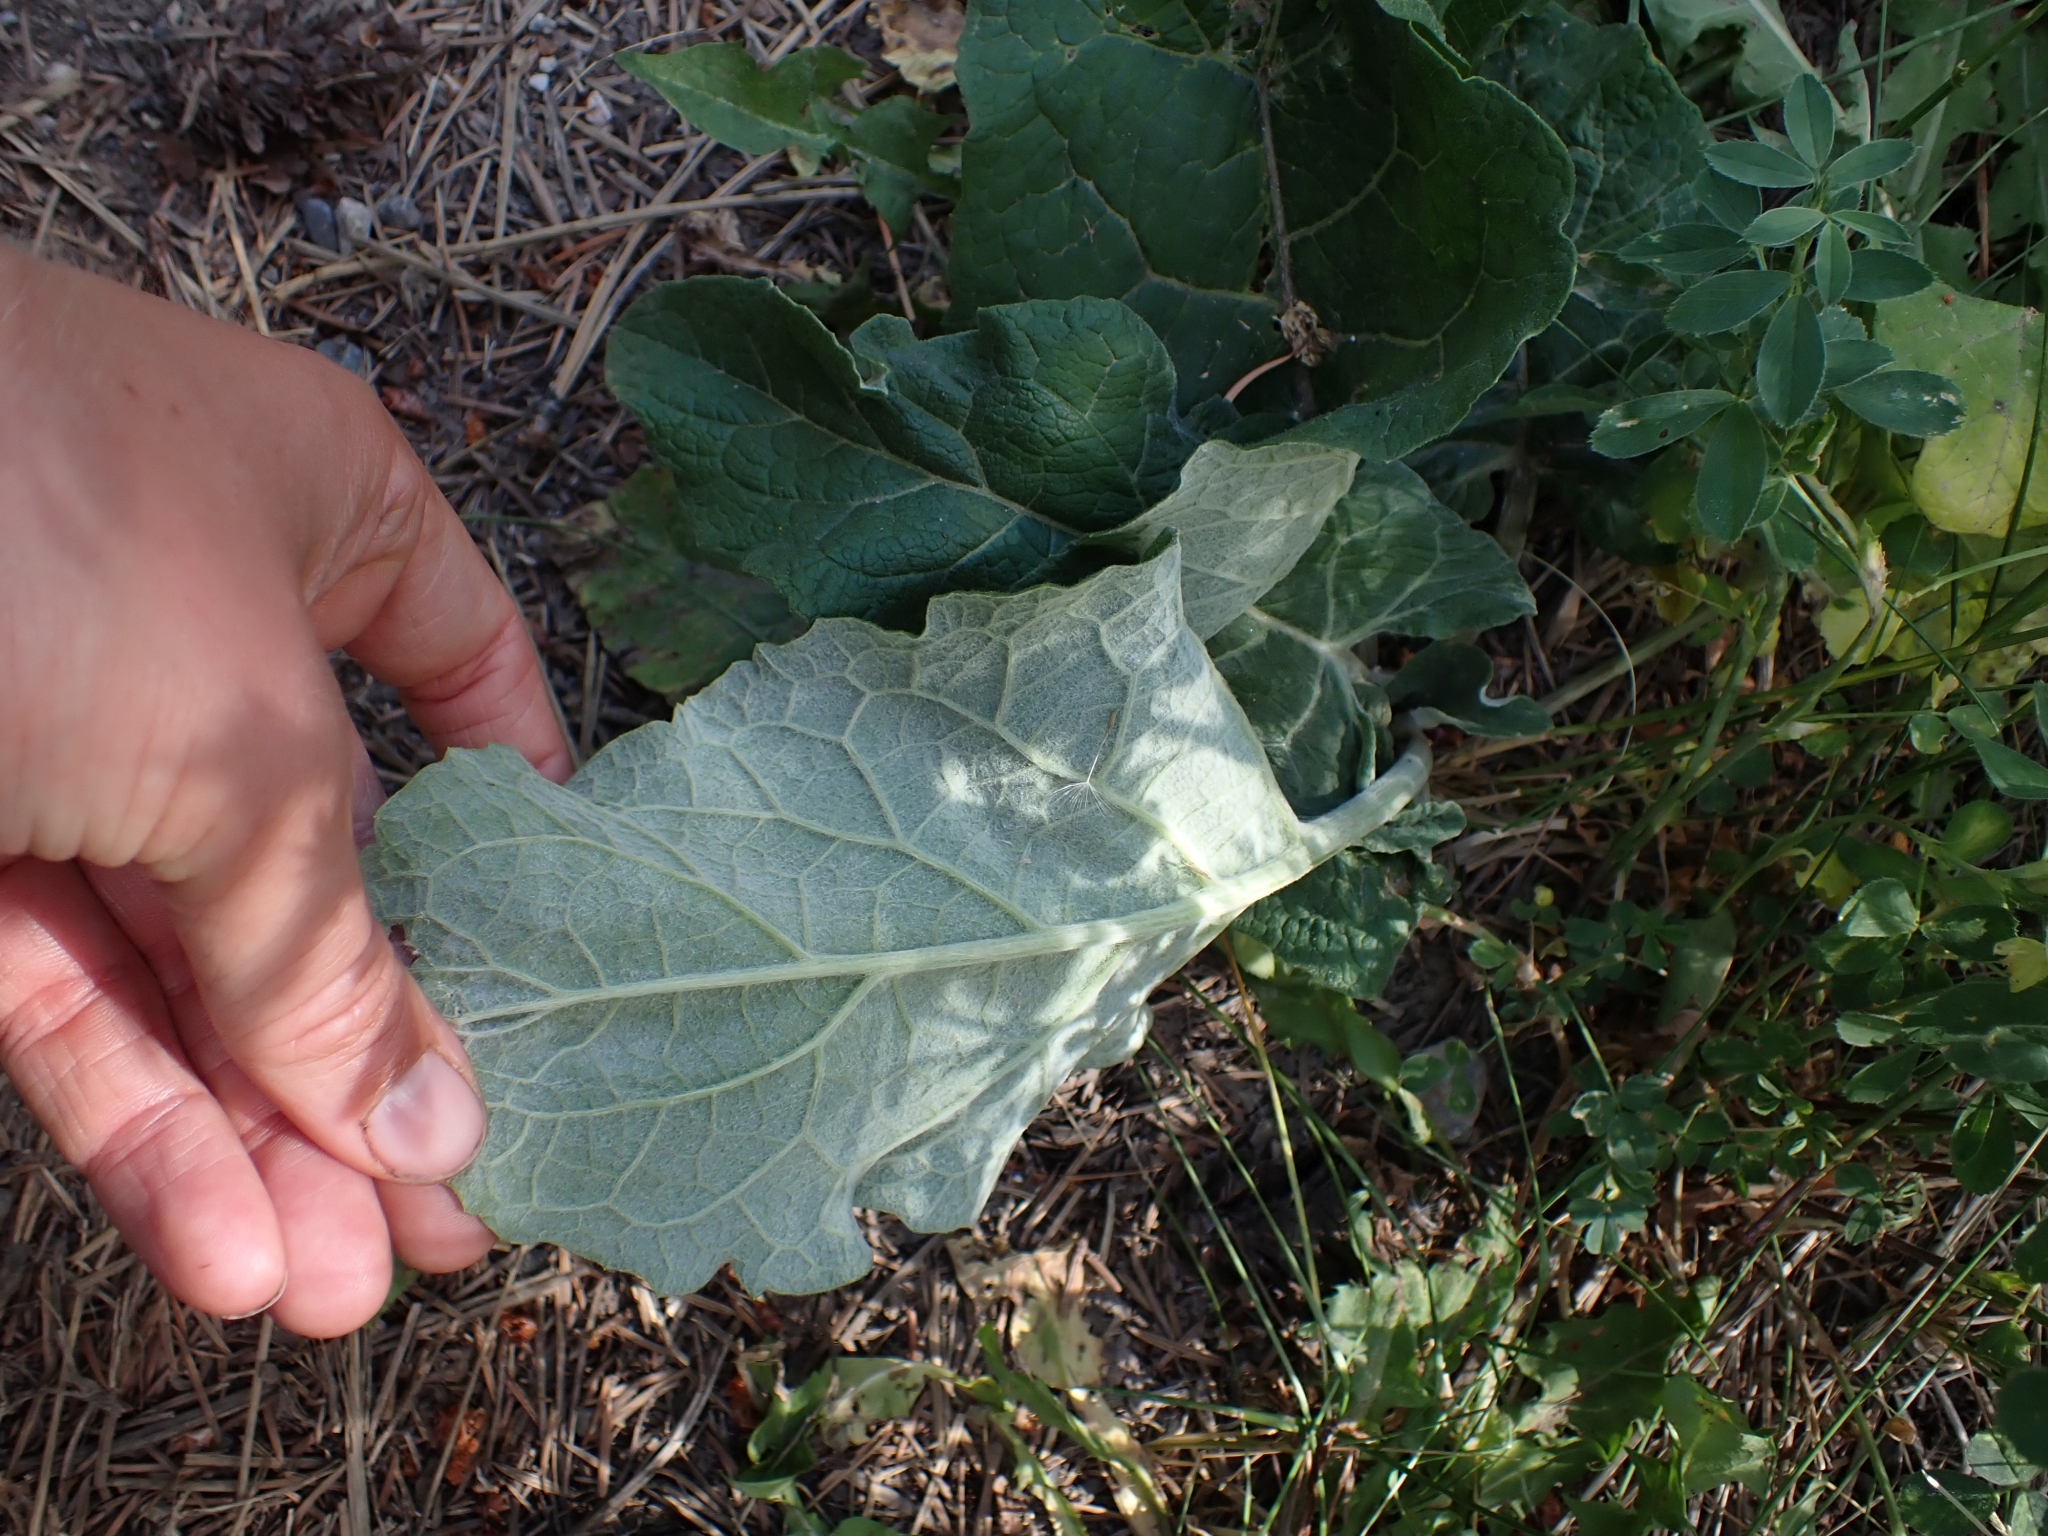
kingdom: Plantae
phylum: Tracheophyta
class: Magnoliopsida
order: Asterales
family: Asteraceae
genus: Arctium
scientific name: Arctium
